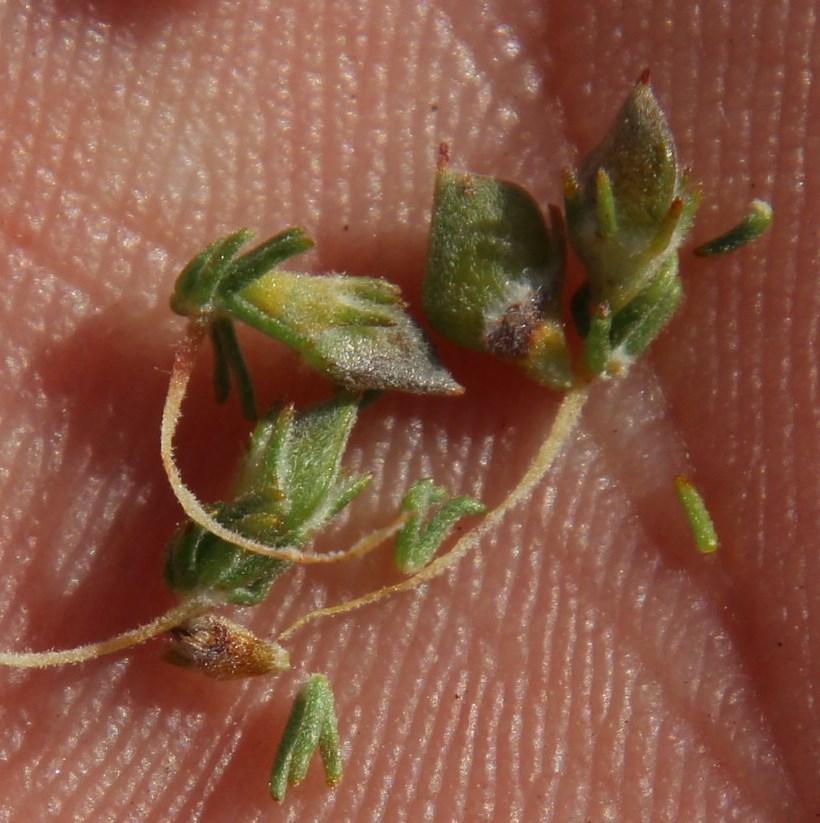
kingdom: Plantae
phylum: Tracheophyta
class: Magnoliopsida
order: Fabales
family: Fabaceae
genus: Aspalathus
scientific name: Aspalathus hispida
